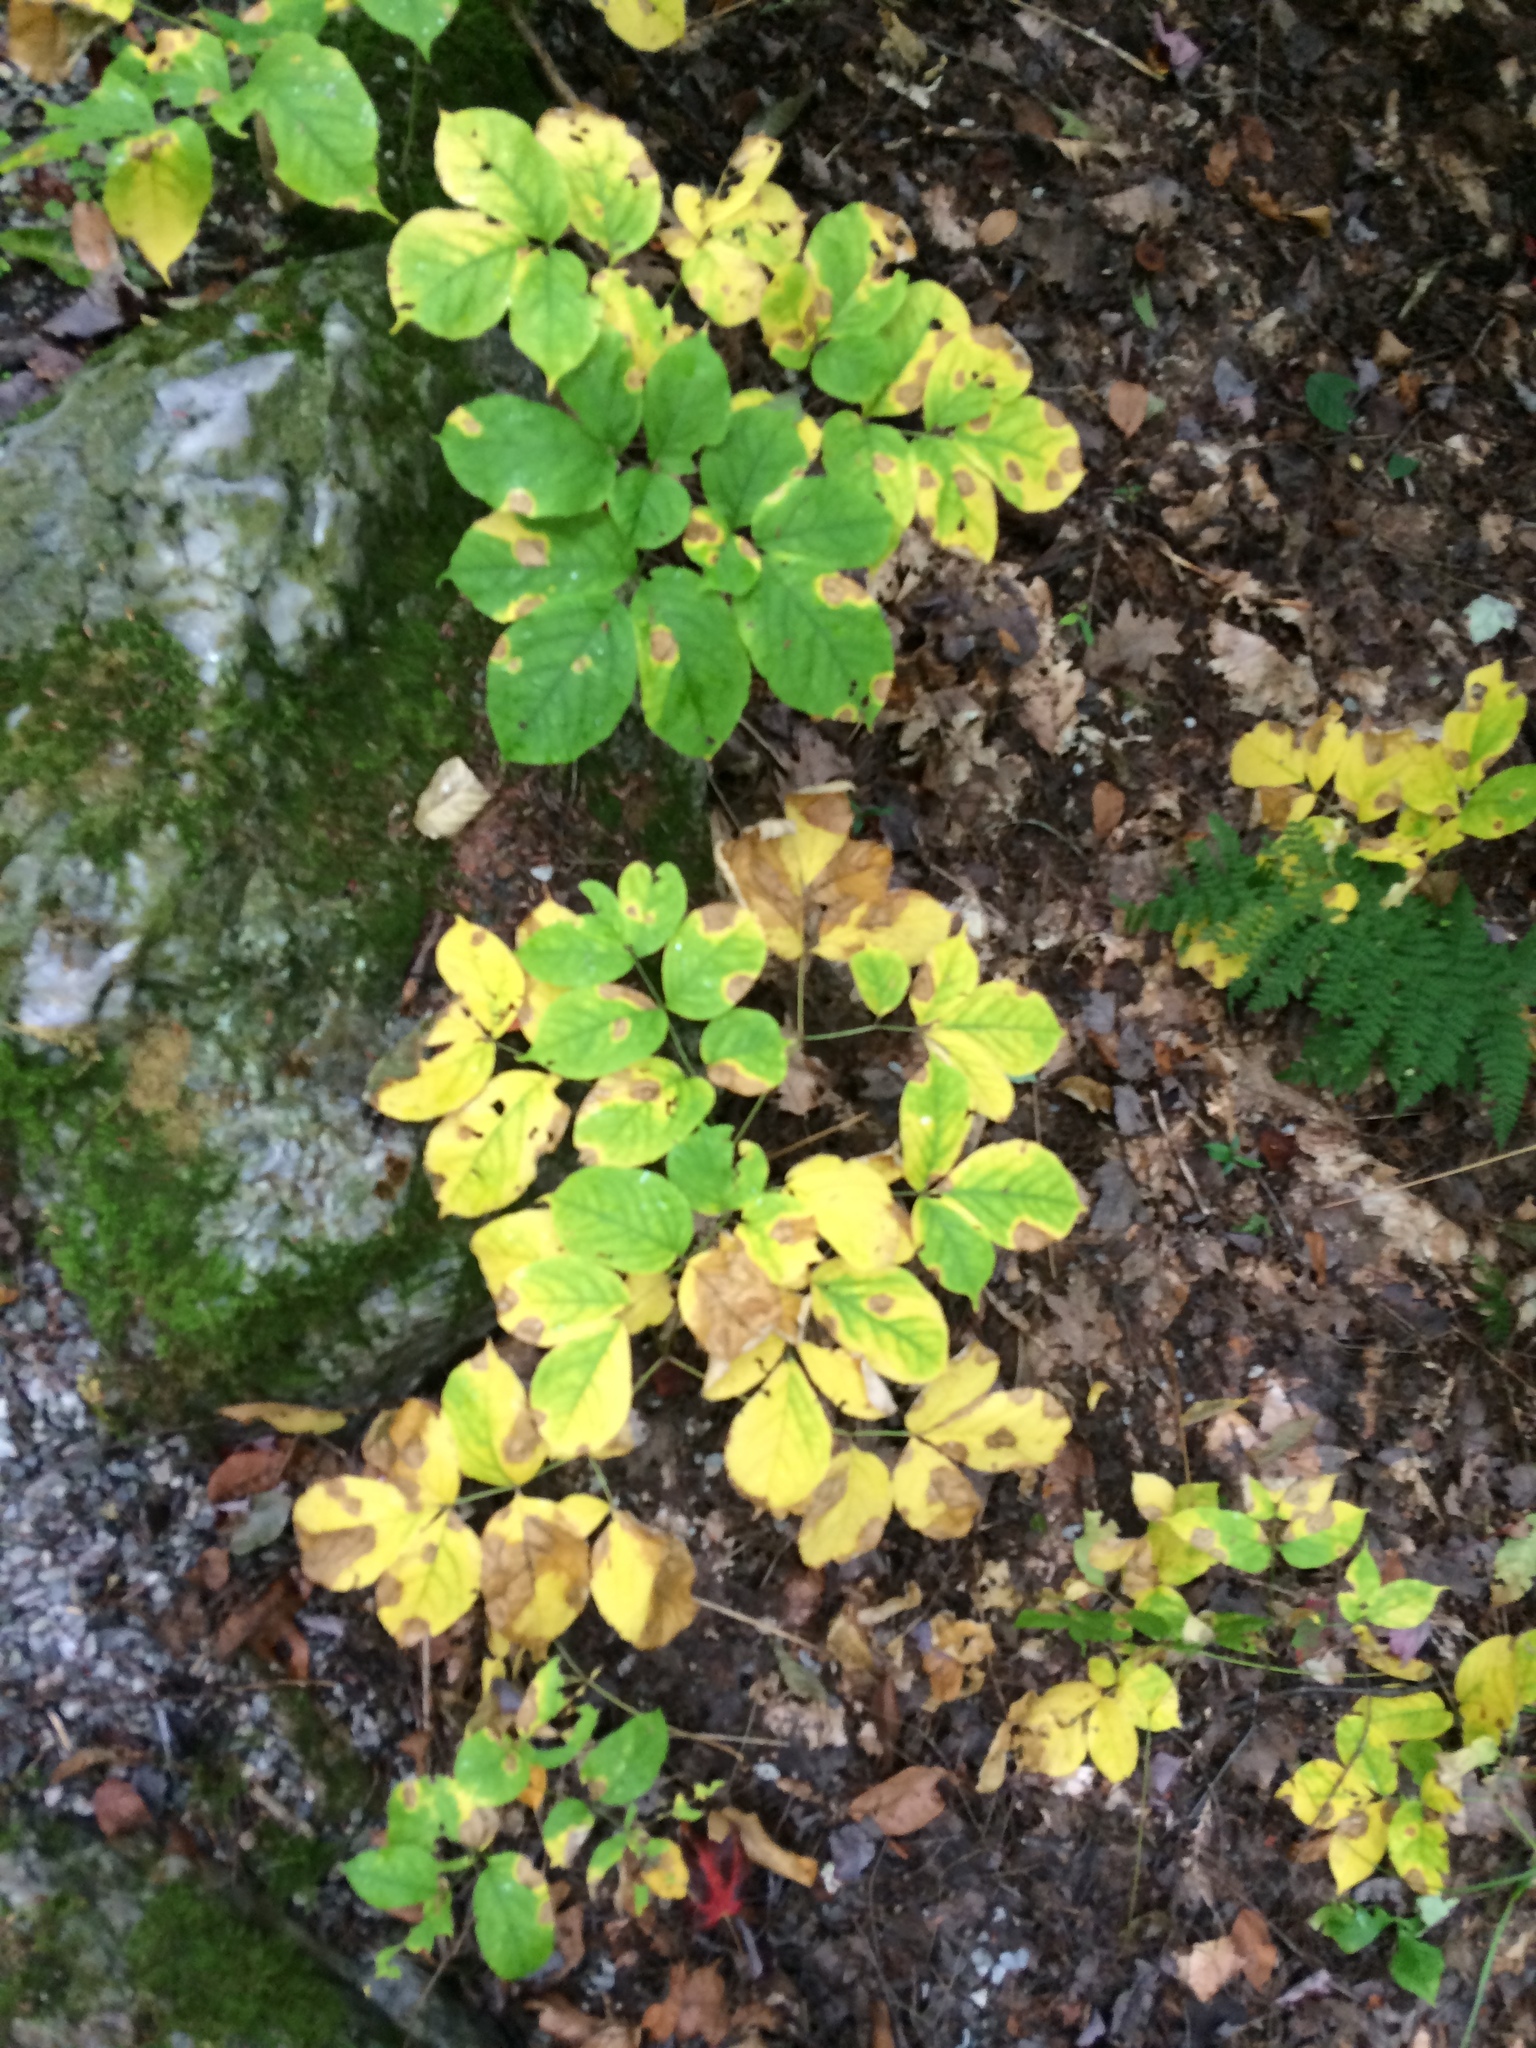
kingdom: Plantae
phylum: Tracheophyta
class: Magnoliopsida
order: Apiales
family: Araliaceae
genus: Aralia
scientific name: Aralia nudicaulis
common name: Wild sarsaparilla
